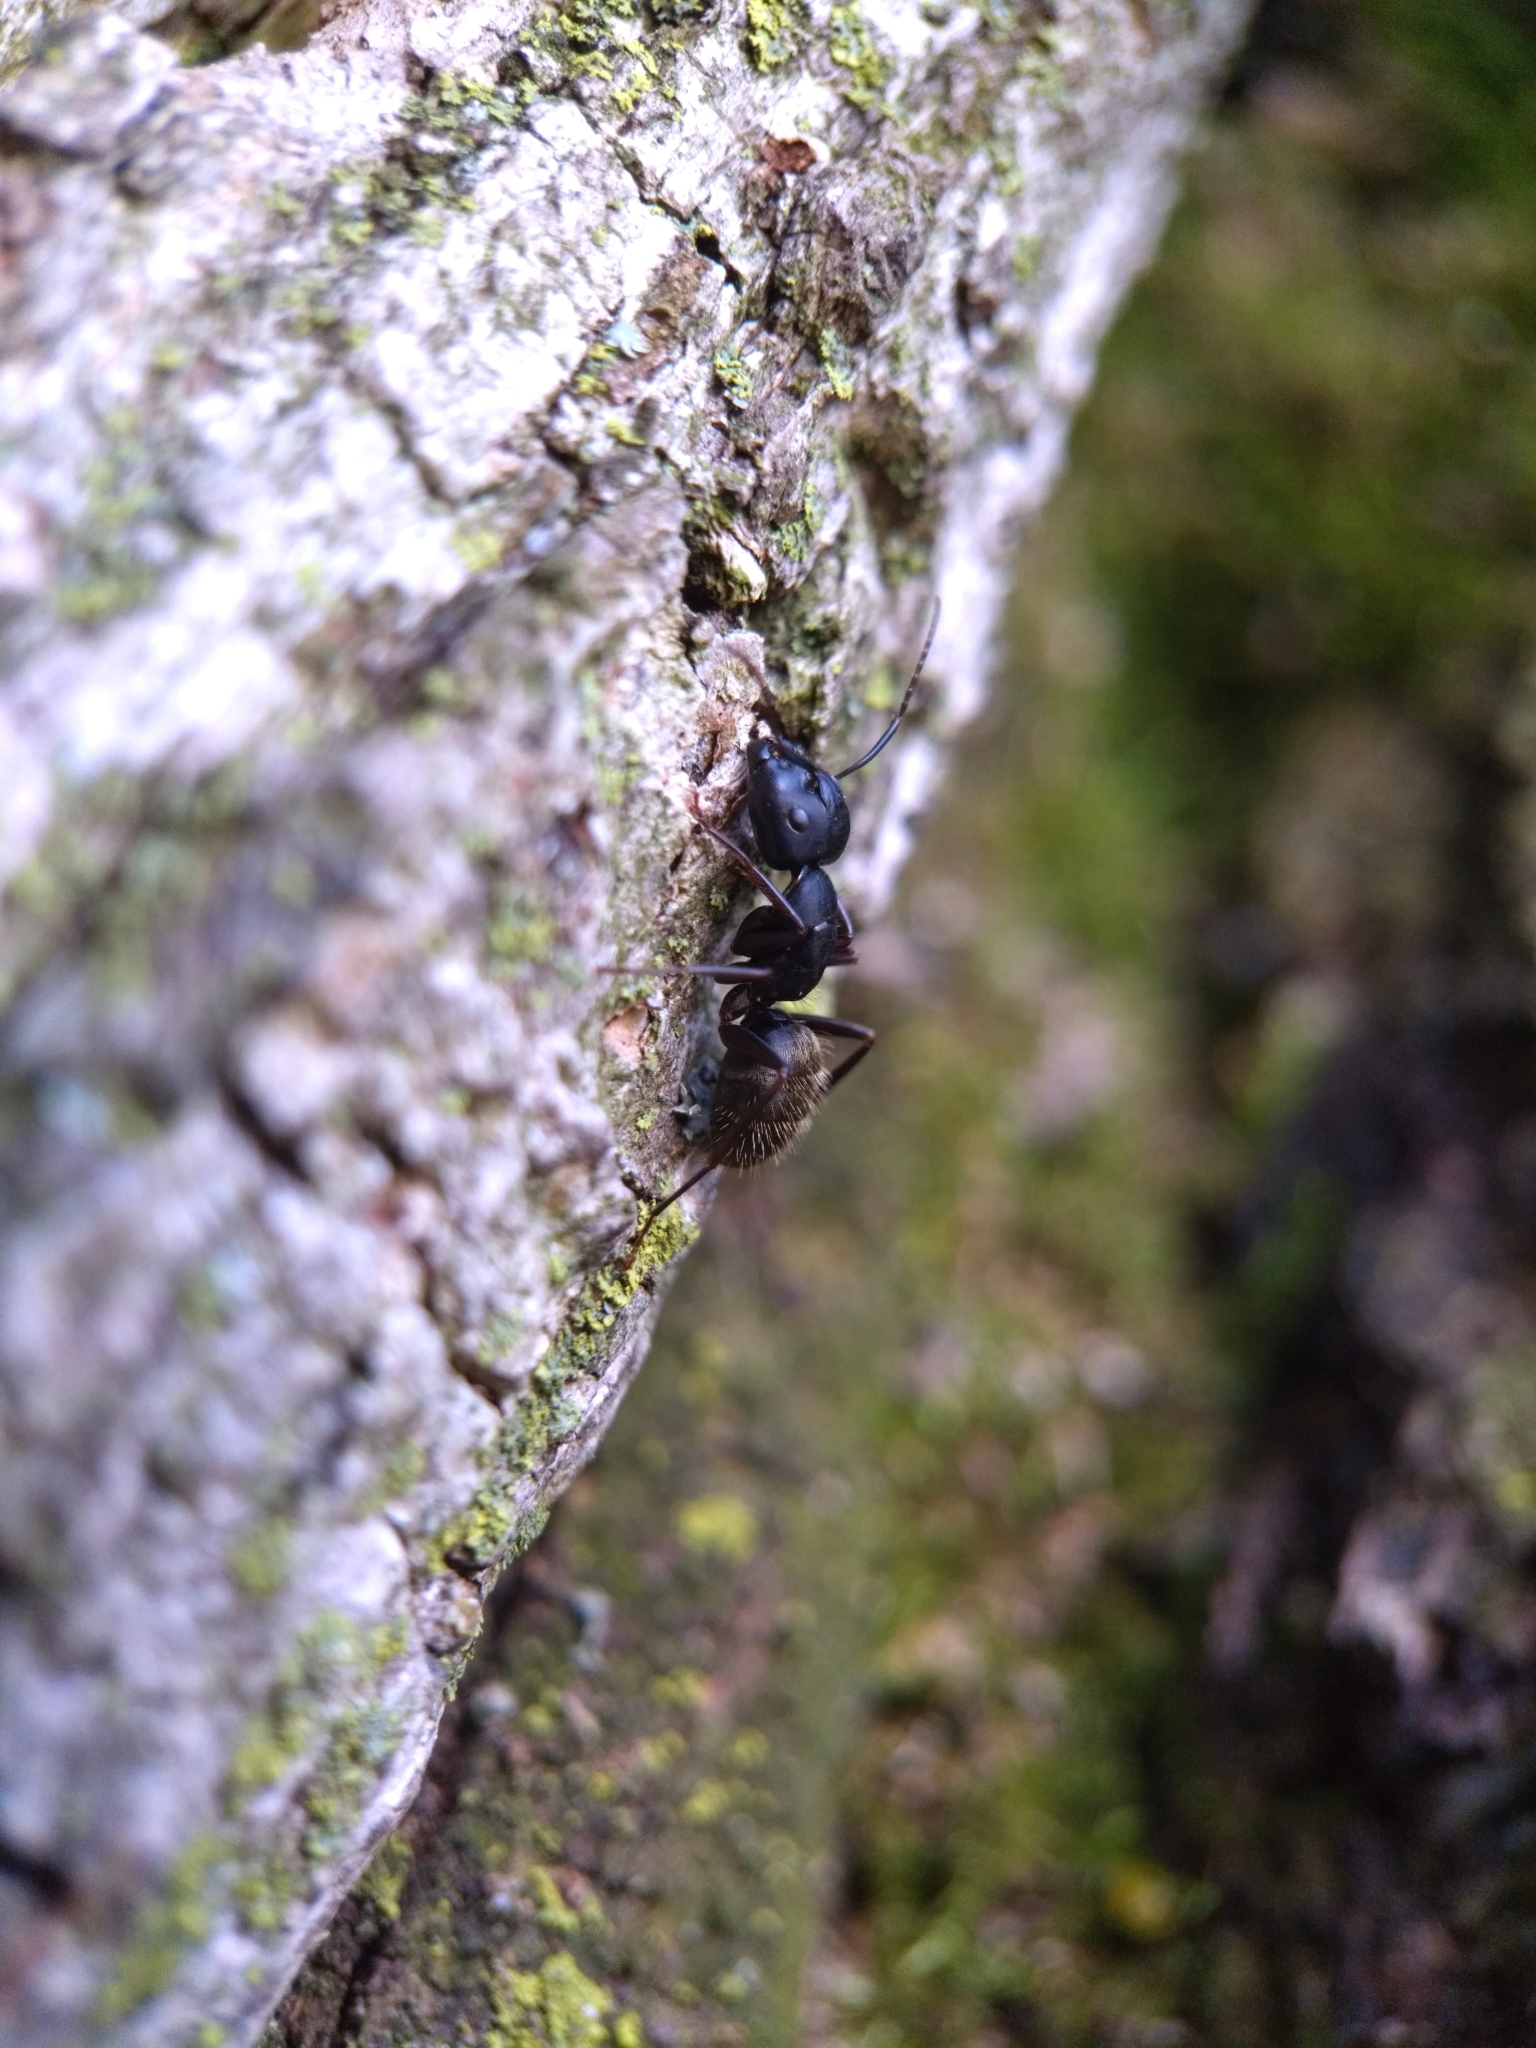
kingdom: Animalia
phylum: Arthropoda
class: Insecta
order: Hymenoptera
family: Formicidae
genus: Camponotus
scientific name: Camponotus pennsylvanicus
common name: Black carpenter ant
